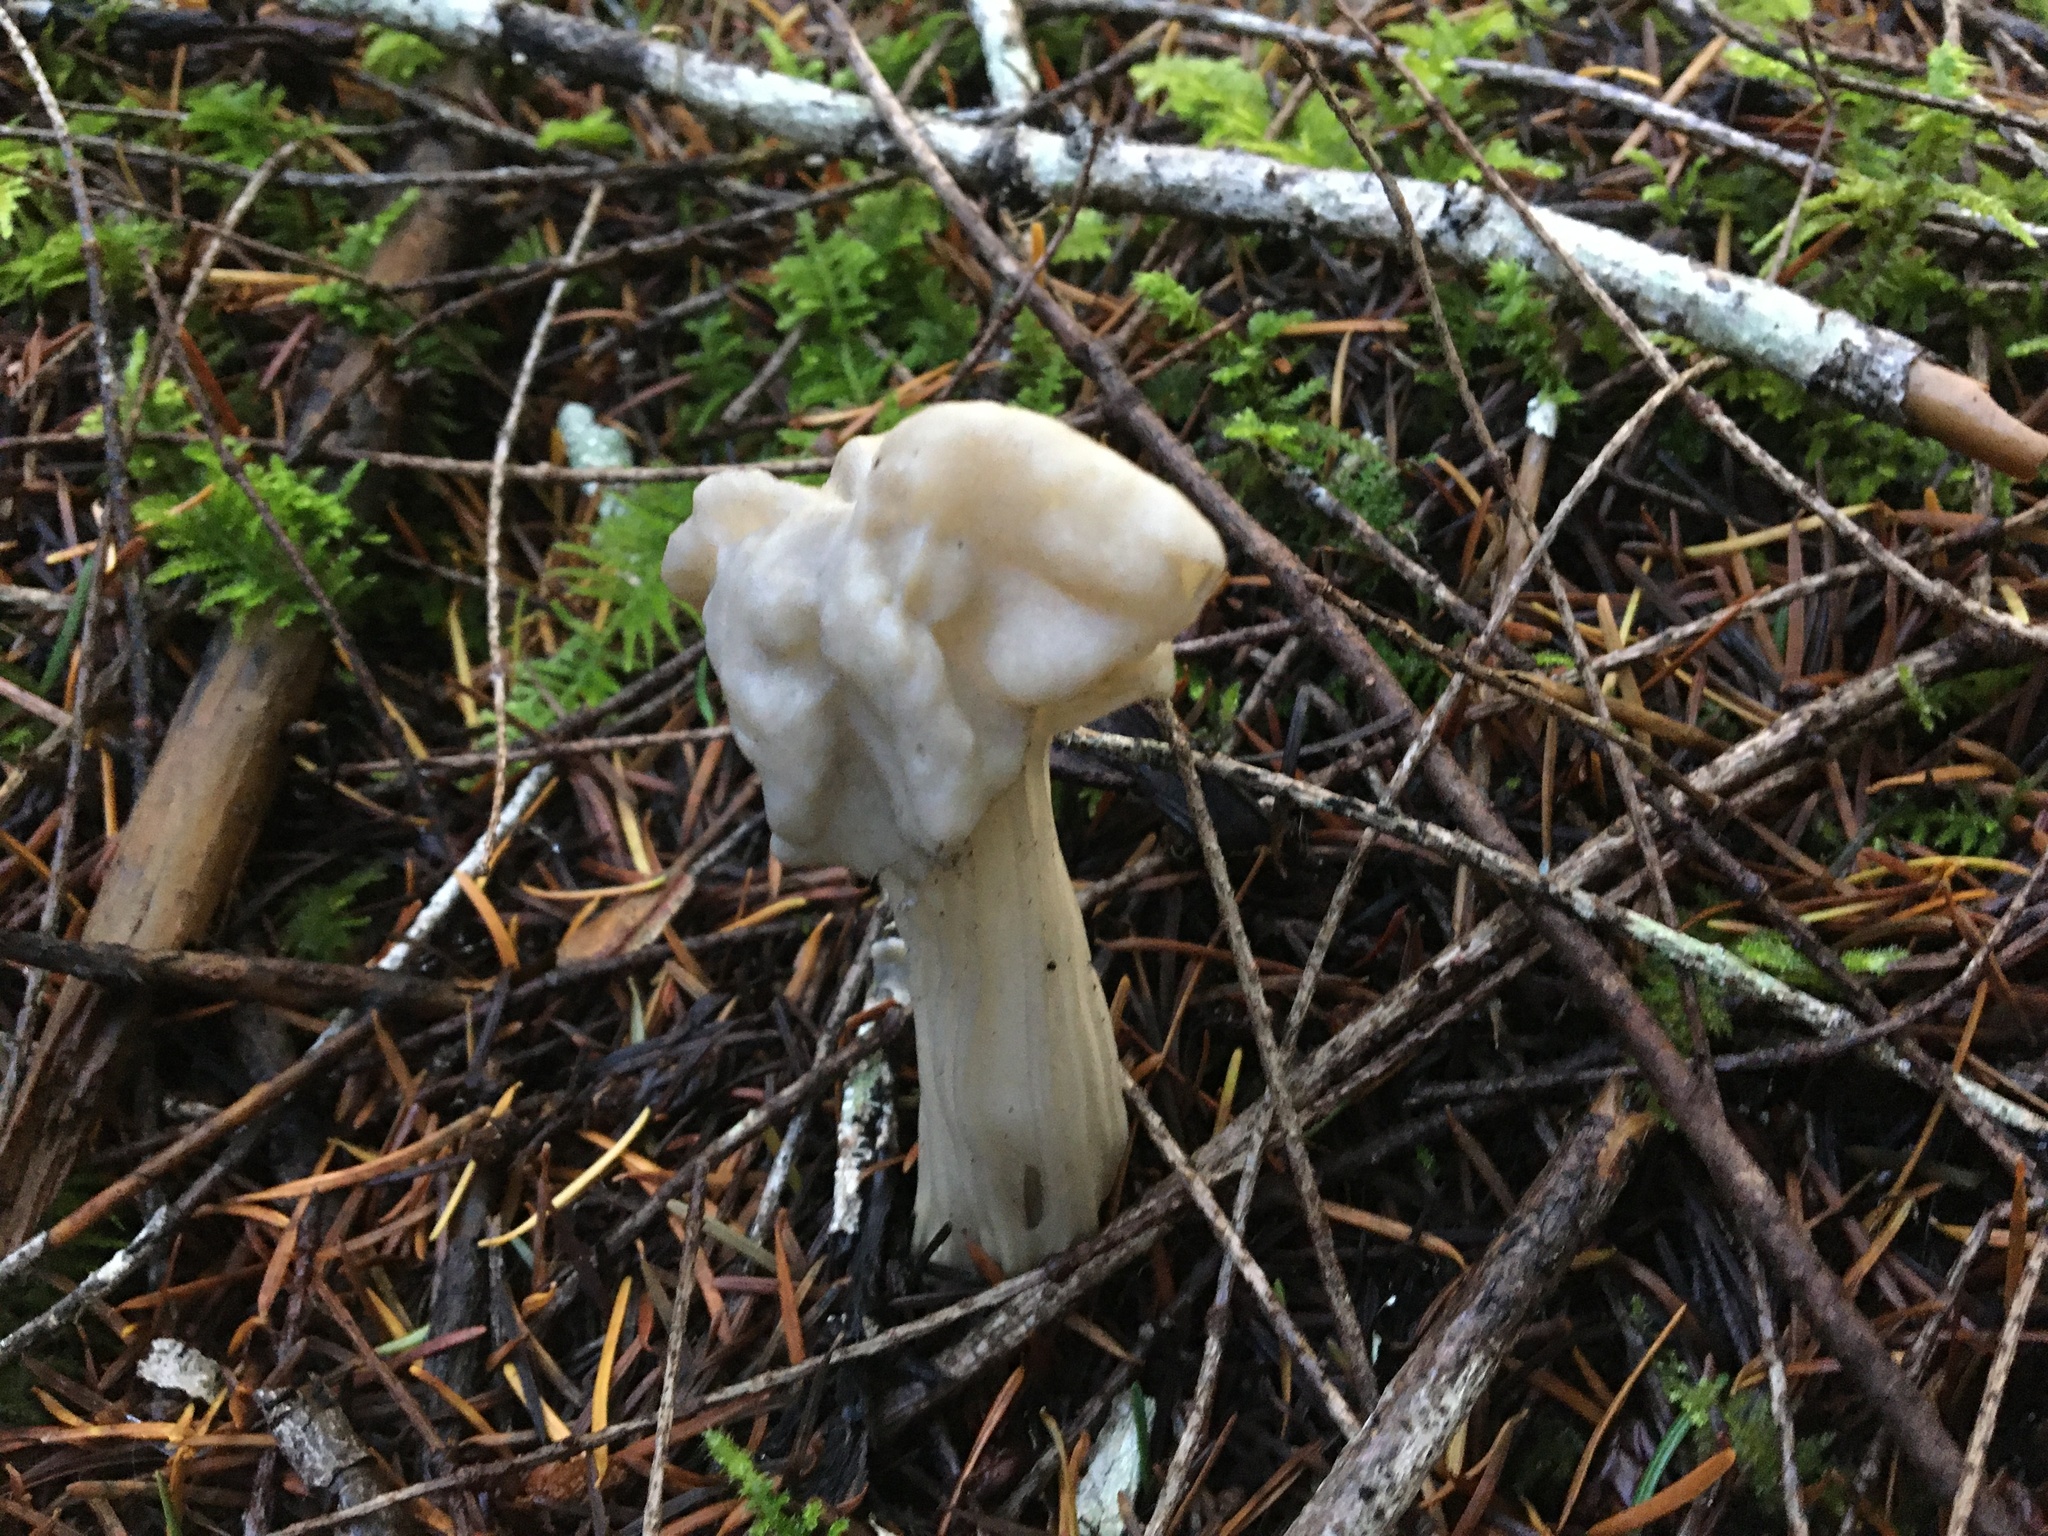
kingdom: Fungi
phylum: Ascomycota
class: Pezizomycetes
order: Pezizales
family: Helvellaceae
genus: Helvella
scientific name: Helvella crispa
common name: White saddle
